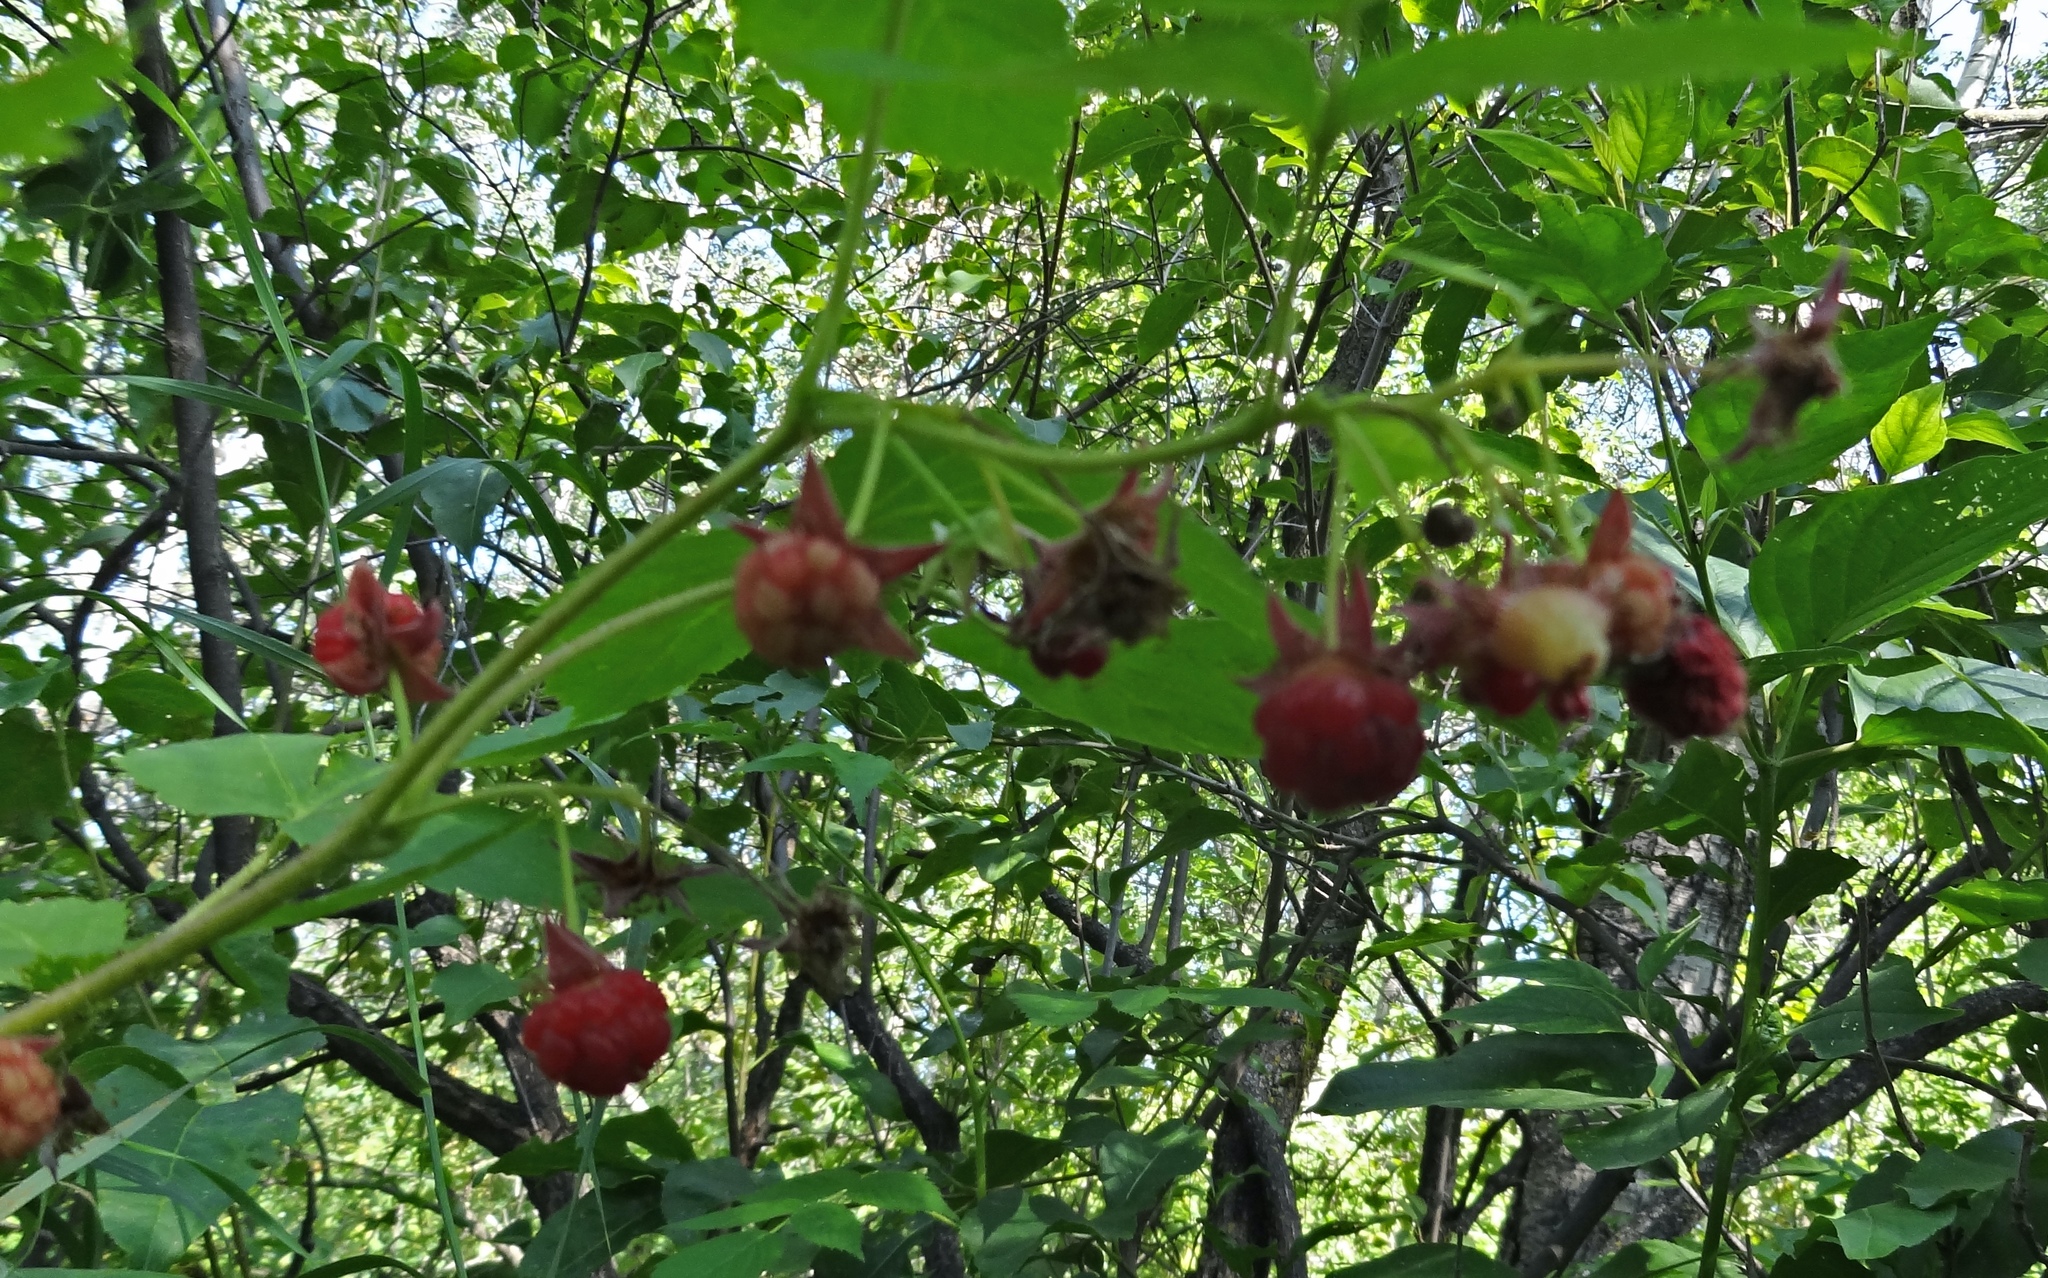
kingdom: Plantae
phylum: Tracheophyta
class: Magnoliopsida
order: Rosales
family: Rosaceae
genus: Rubus
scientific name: Rubus idaeus
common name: Raspberry
